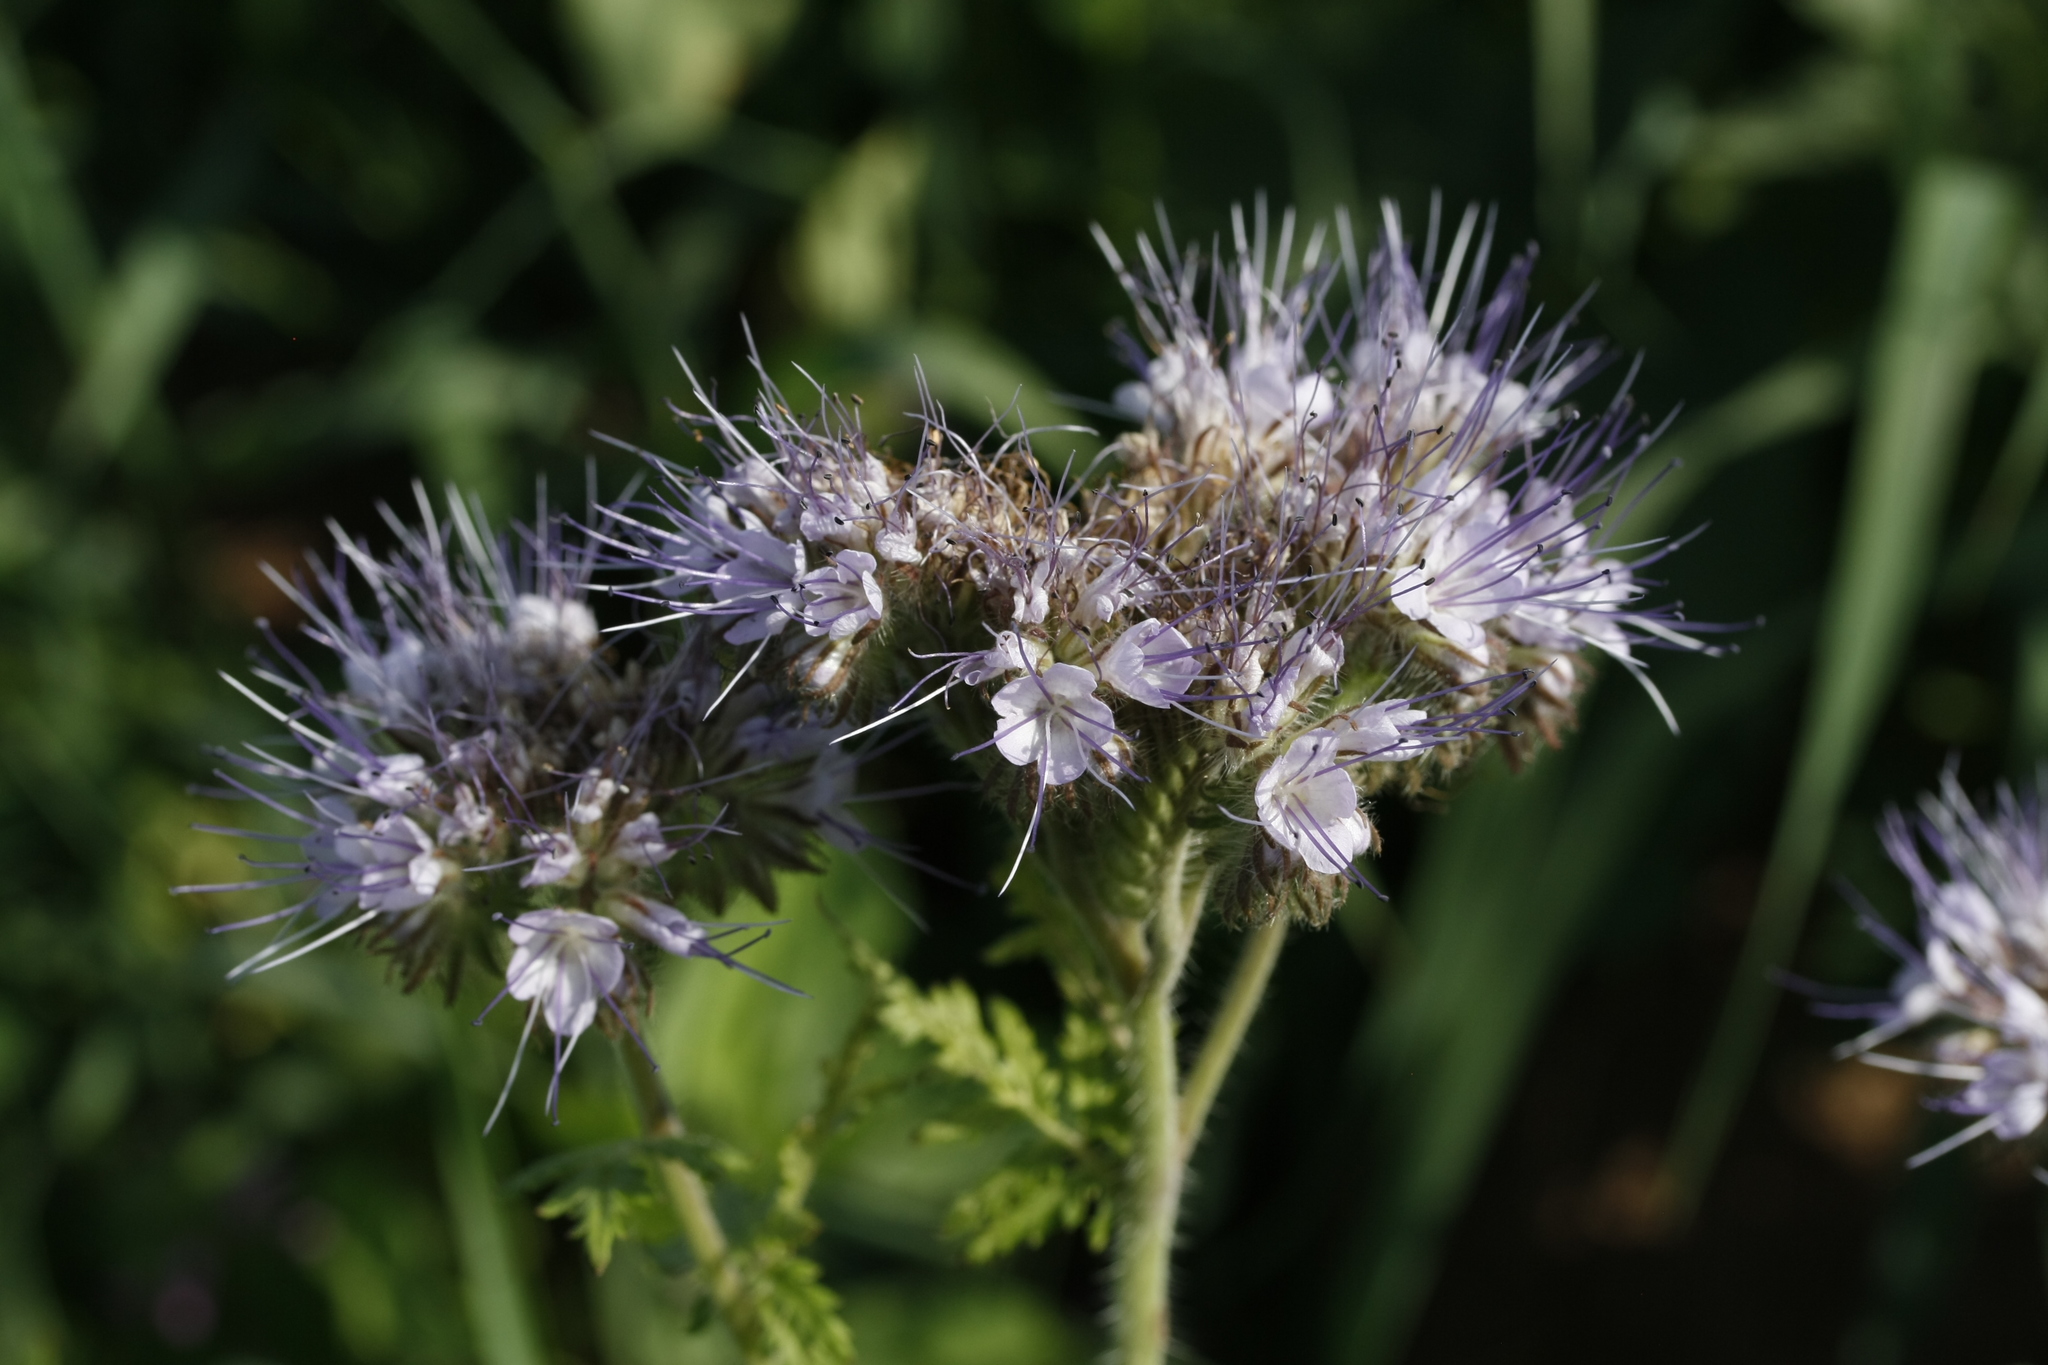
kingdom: Plantae
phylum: Tracheophyta
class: Magnoliopsida
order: Boraginales
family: Hydrophyllaceae
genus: Phacelia
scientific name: Phacelia tanacetifolia
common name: Phacelia
